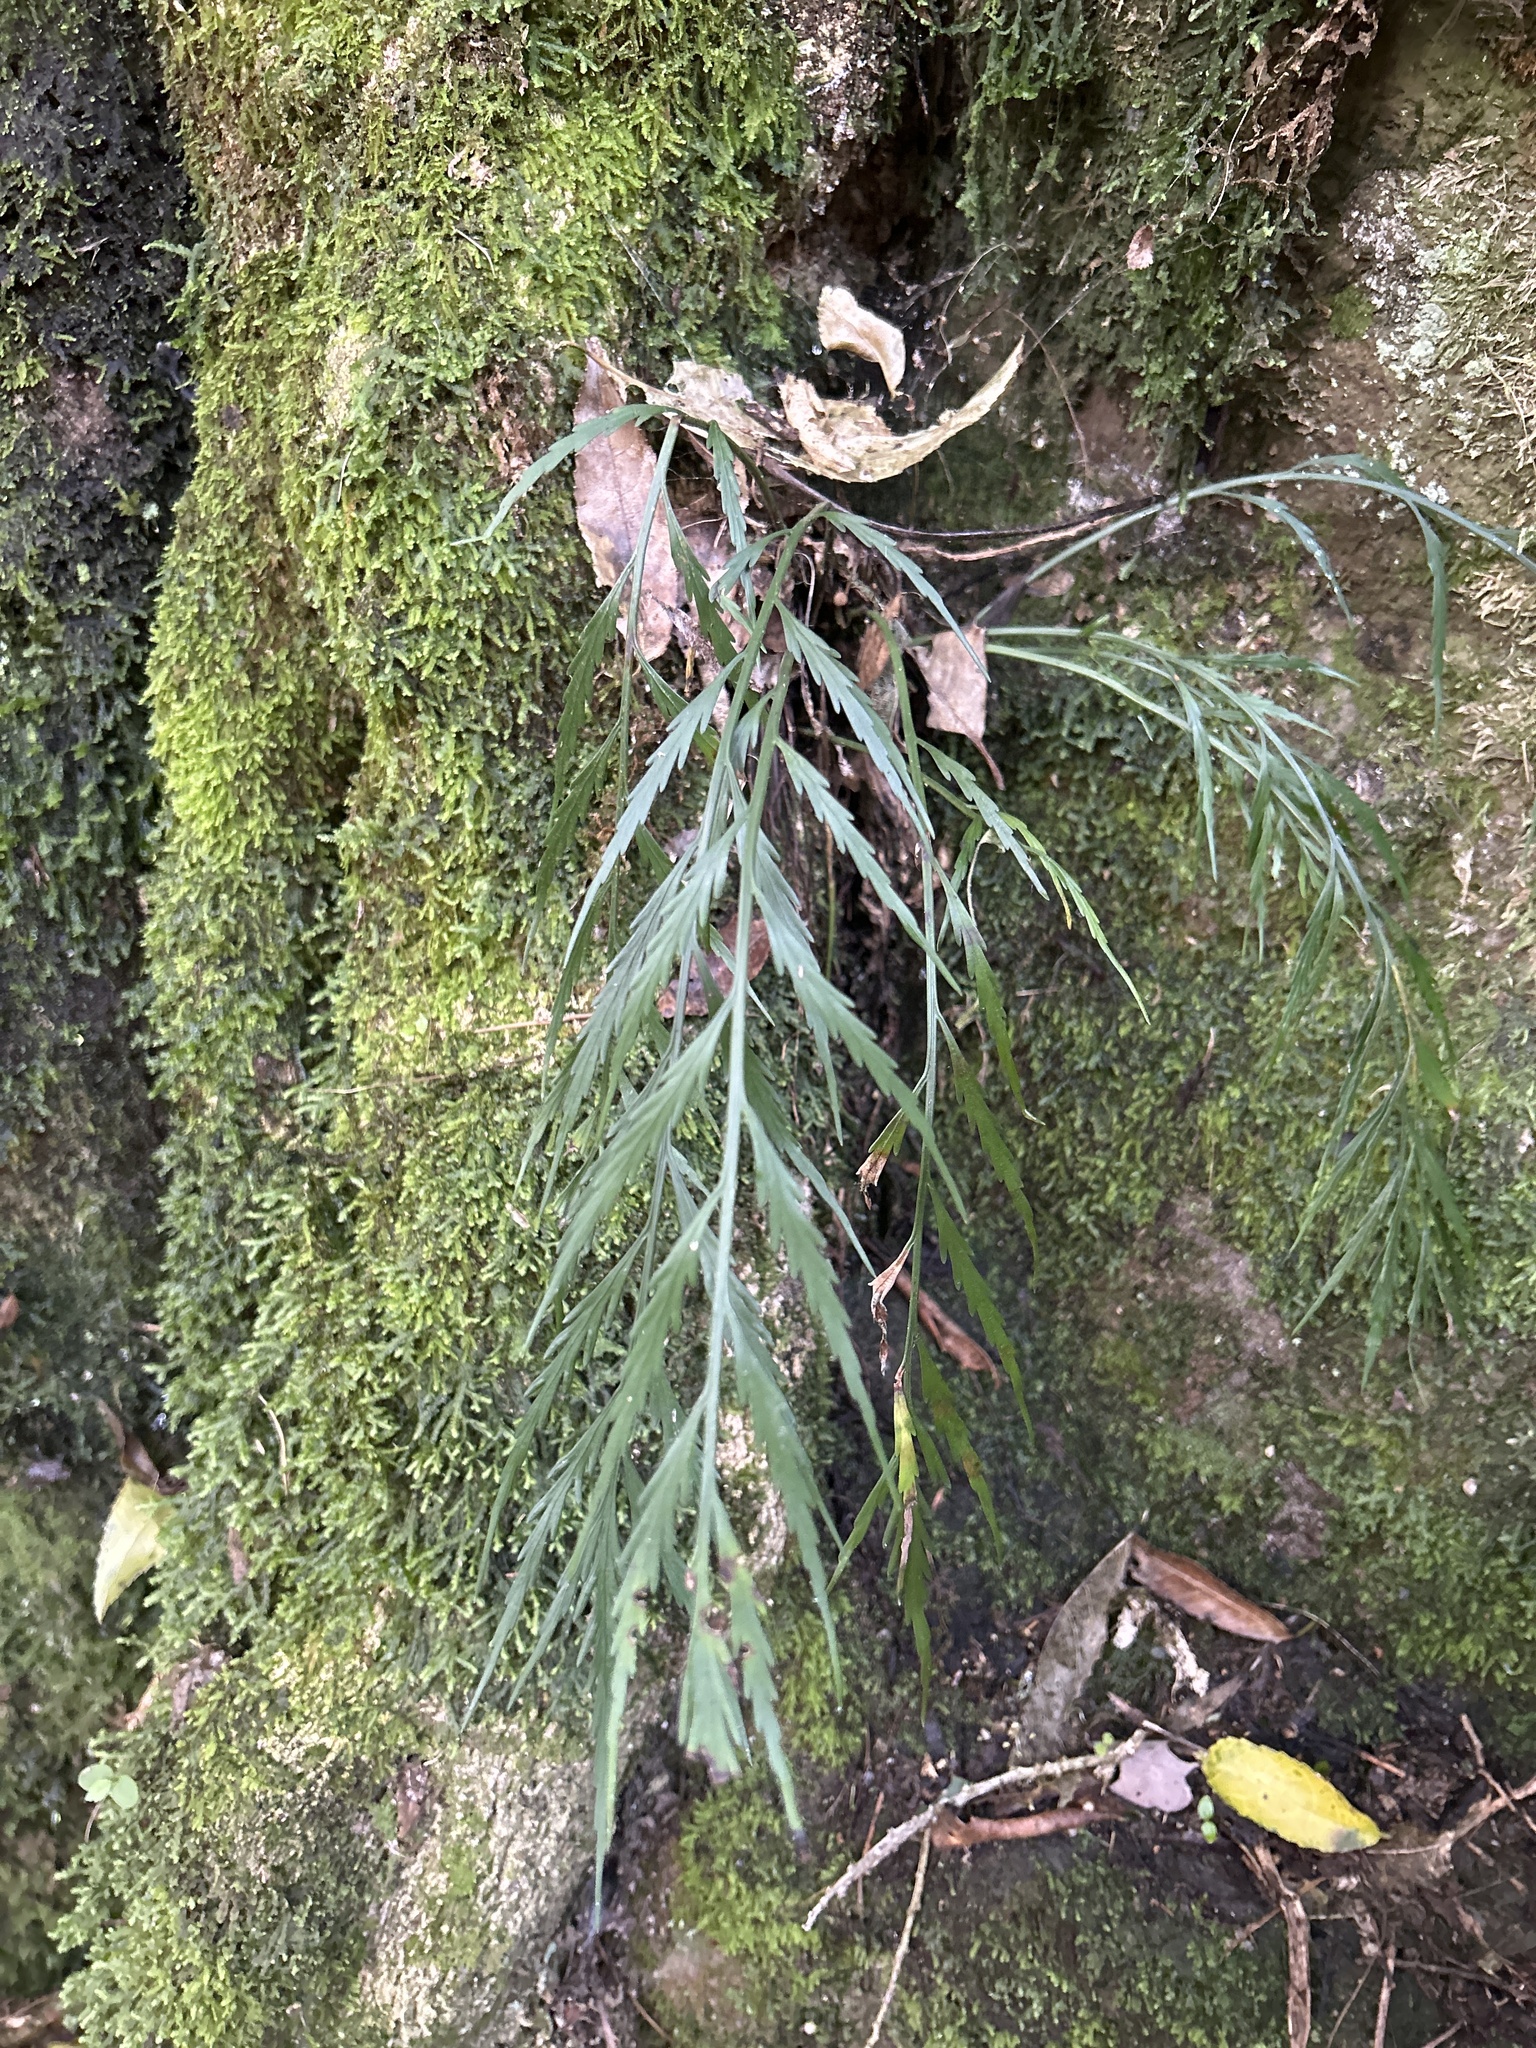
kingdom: Plantae
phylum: Tracheophyta
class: Polypodiopsida
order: Polypodiales
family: Aspleniaceae
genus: Asplenium
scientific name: Asplenium flaccidum
